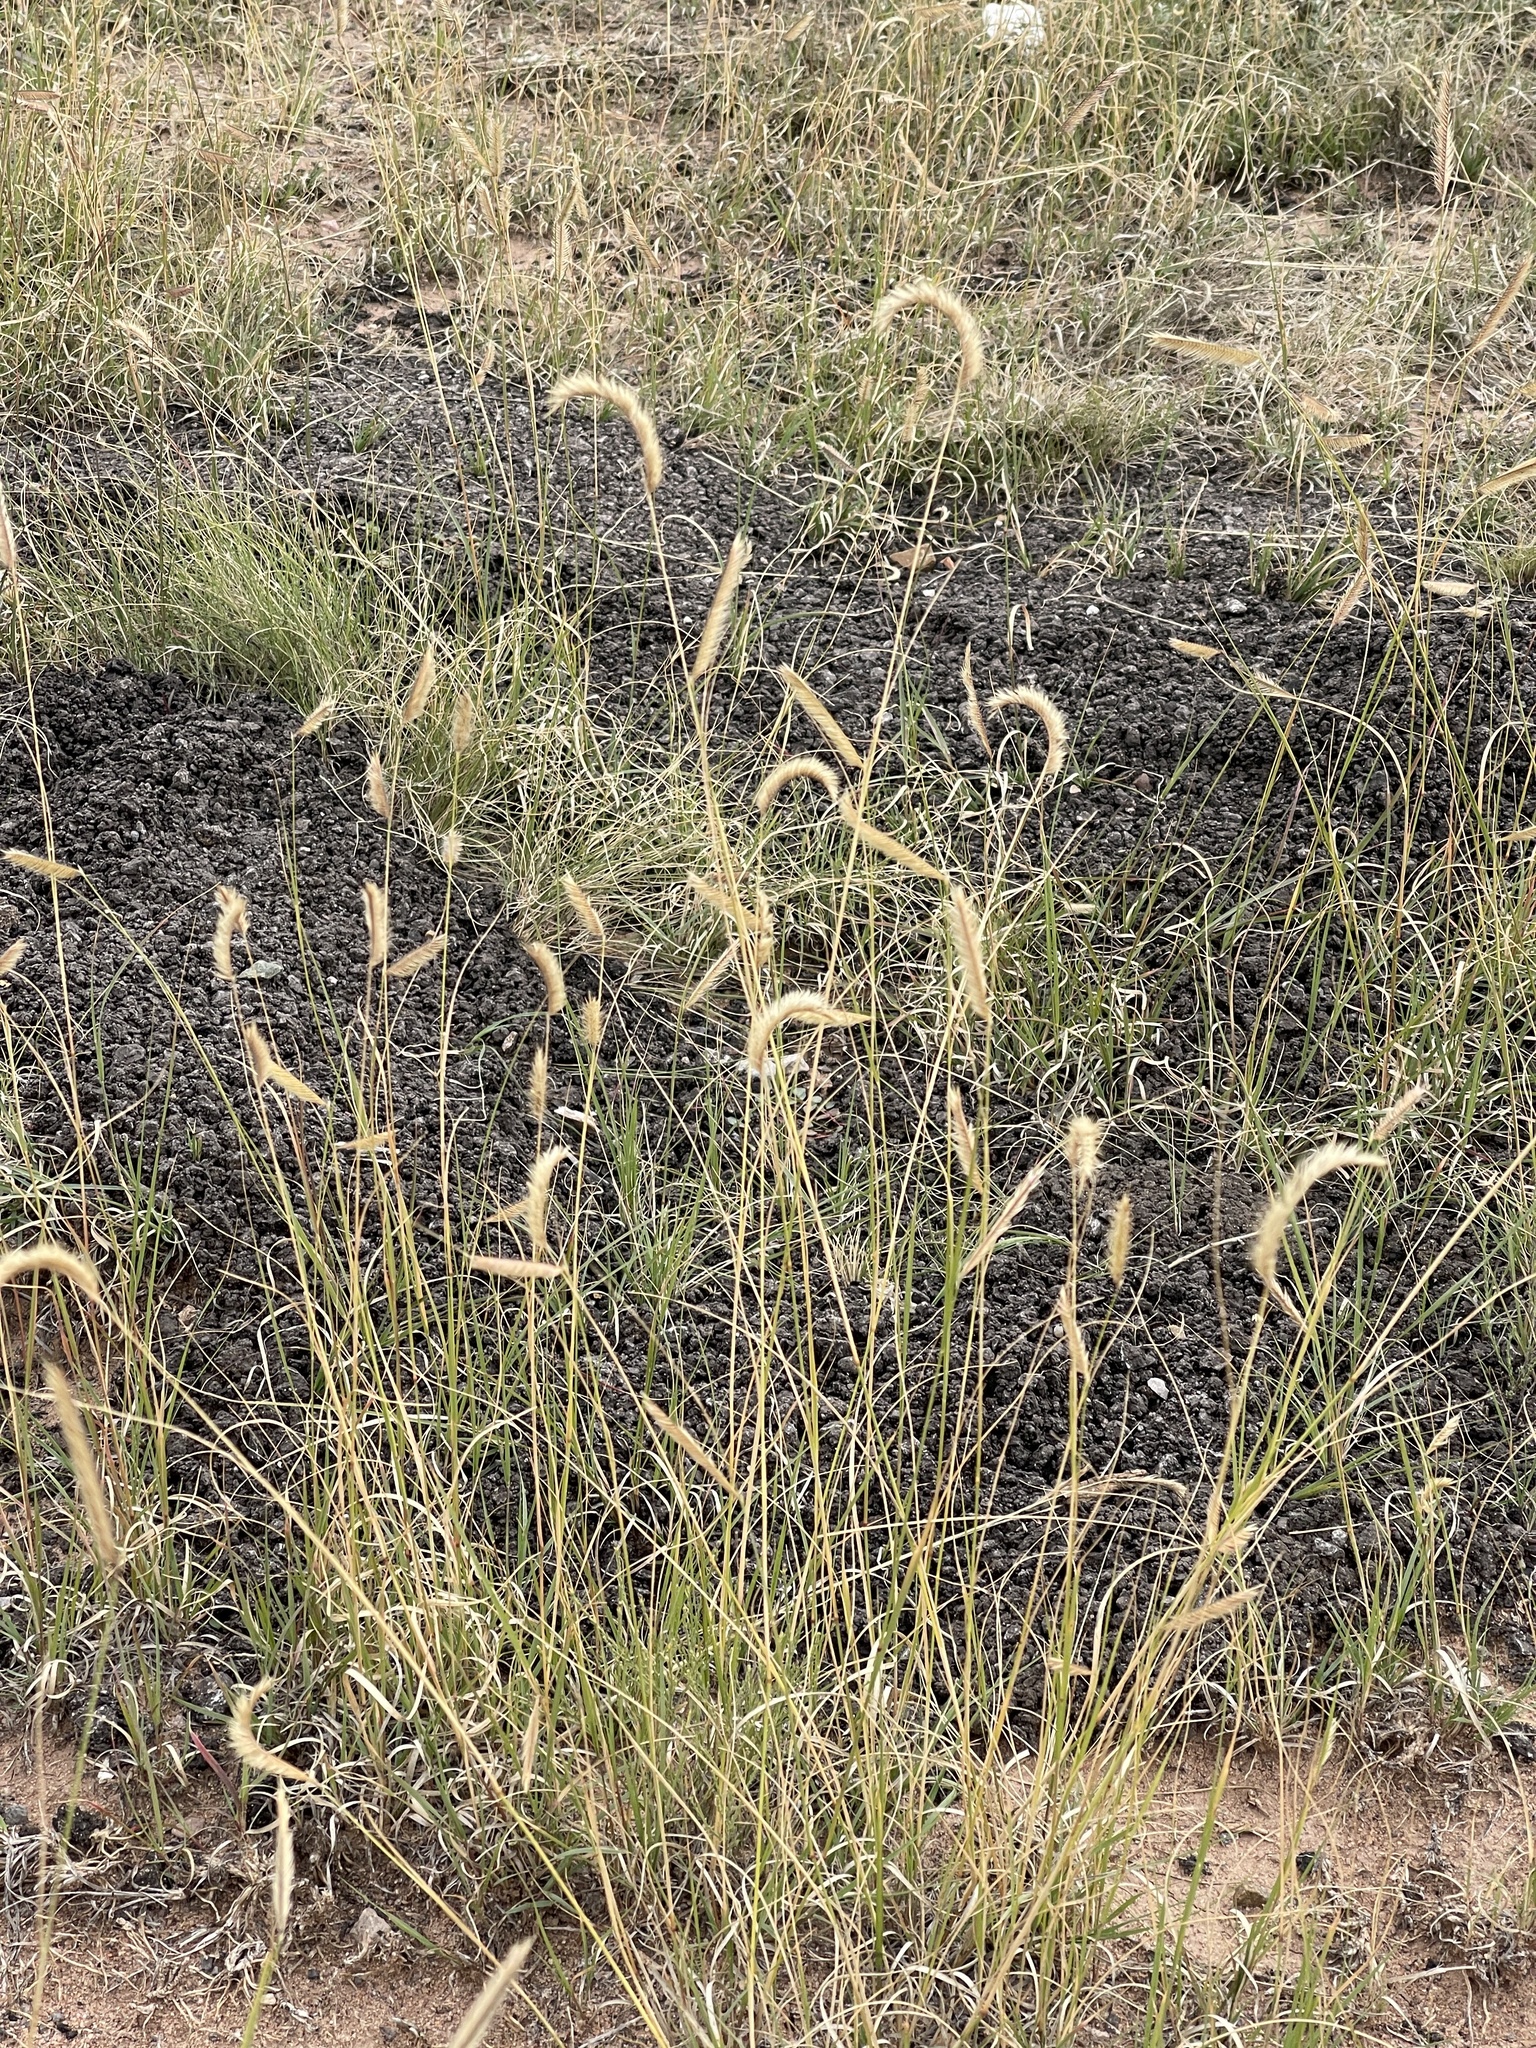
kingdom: Plantae
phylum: Tracheophyta
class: Liliopsida
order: Poales
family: Poaceae
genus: Bouteloua
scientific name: Bouteloua gracilis
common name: Blue grama
